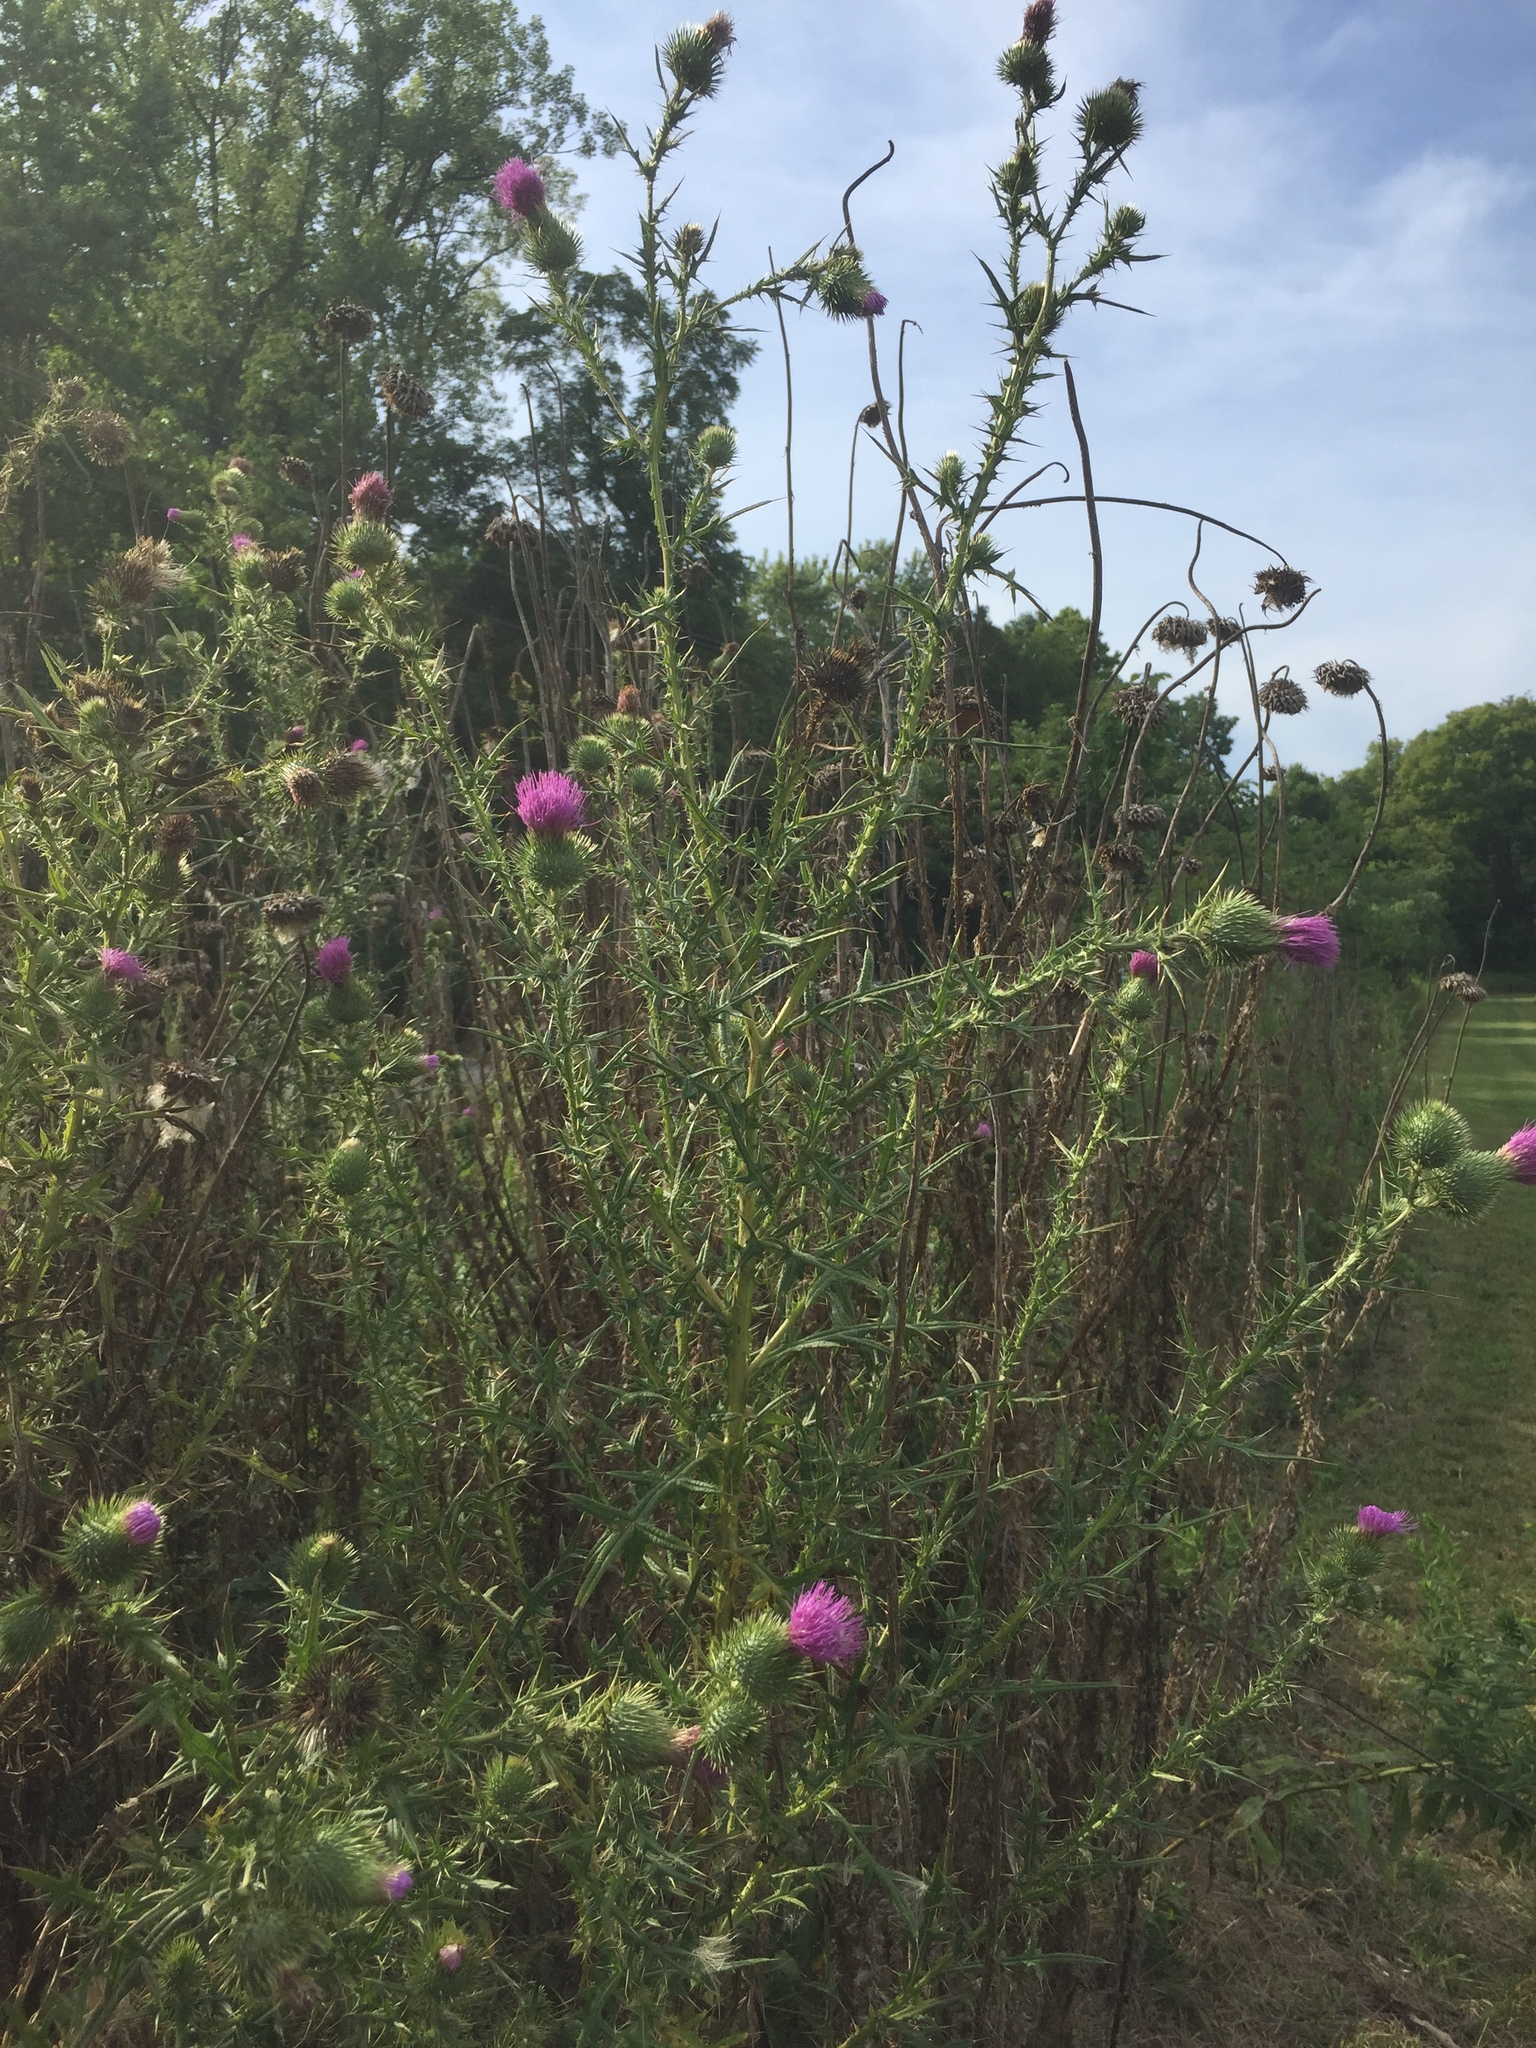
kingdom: Plantae
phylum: Tracheophyta
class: Magnoliopsida
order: Asterales
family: Asteraceae
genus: Cirsium
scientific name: Cirsium vulgare
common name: Bull thistle
